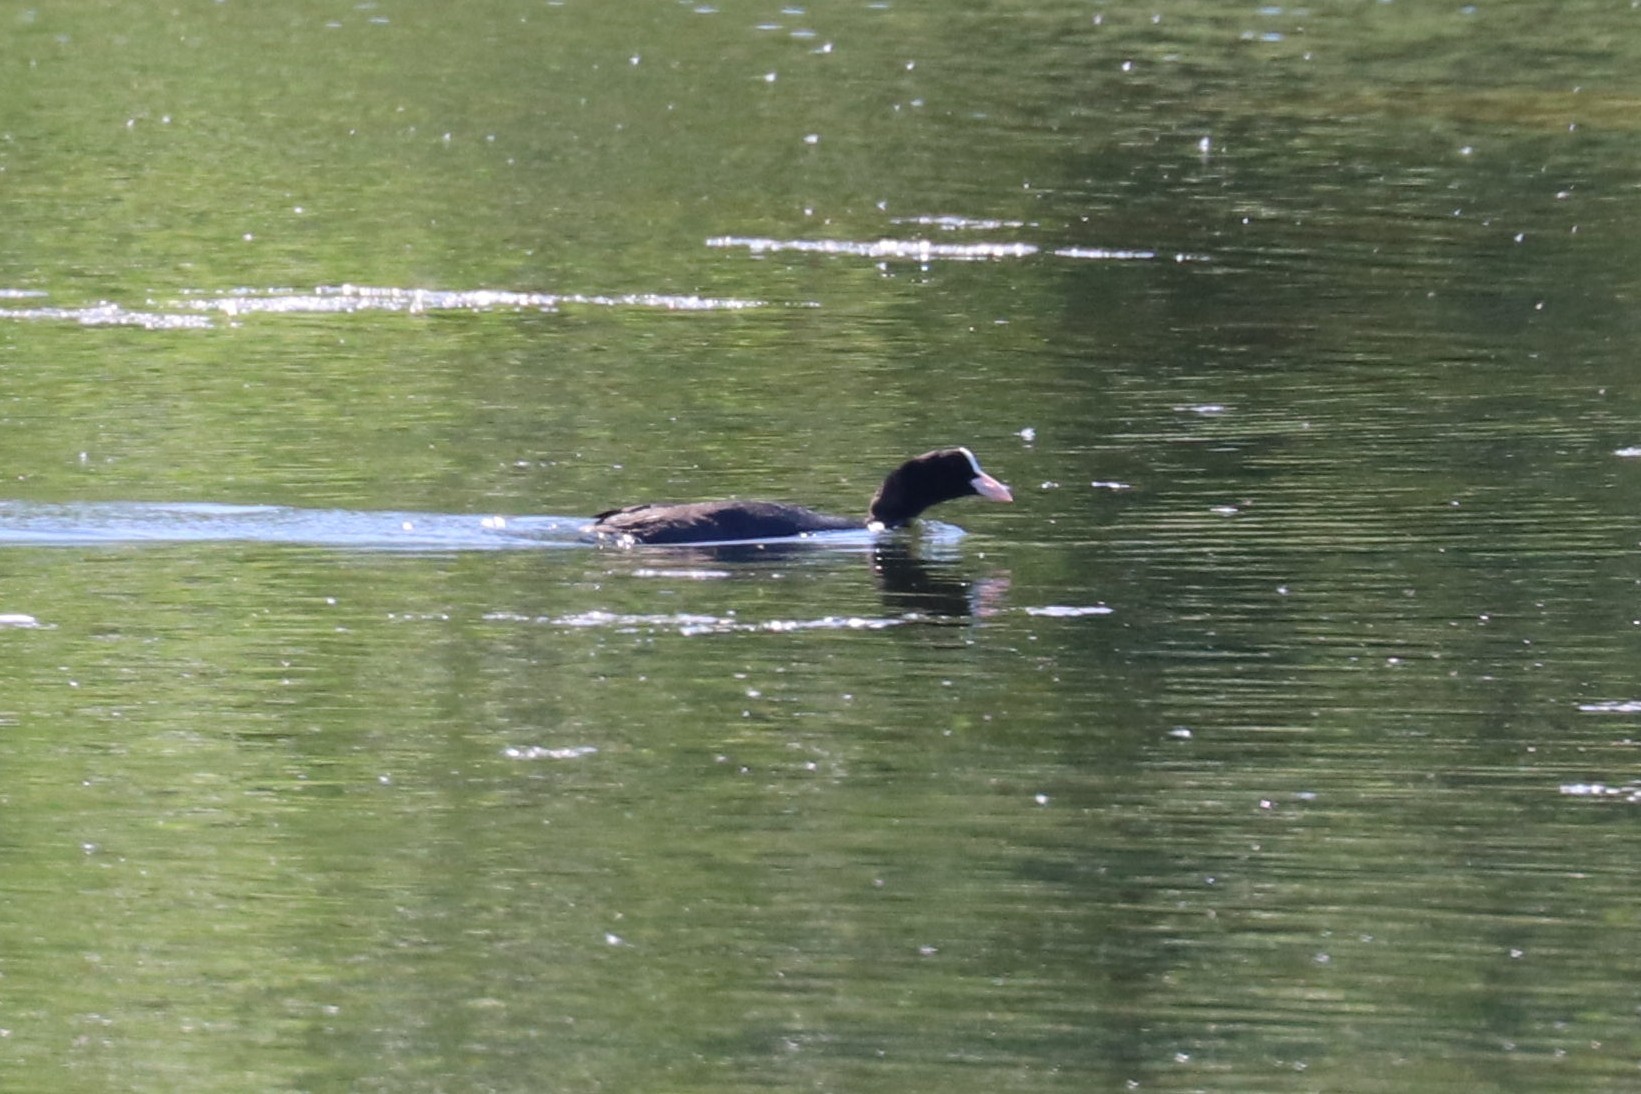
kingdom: Animalia
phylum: Chordata
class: Aves
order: Gruiformes
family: Rallidae
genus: Fulica
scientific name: Fulica atra
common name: Eurasian coot
